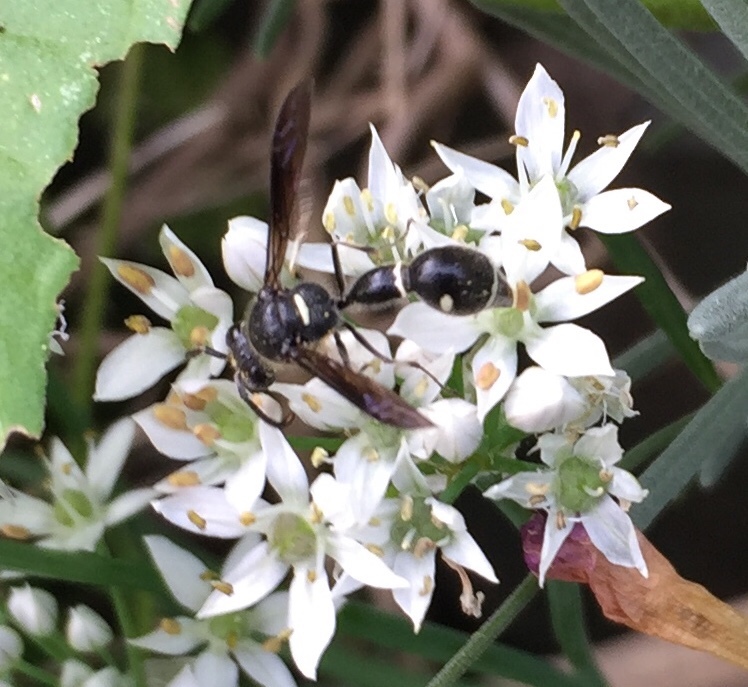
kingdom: Animalia
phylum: Arthropoda
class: Insecta
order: Hymenoptera
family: Vespidae
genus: Eumenes
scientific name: Eumenes fraternus
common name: Fraternal potter wasp
